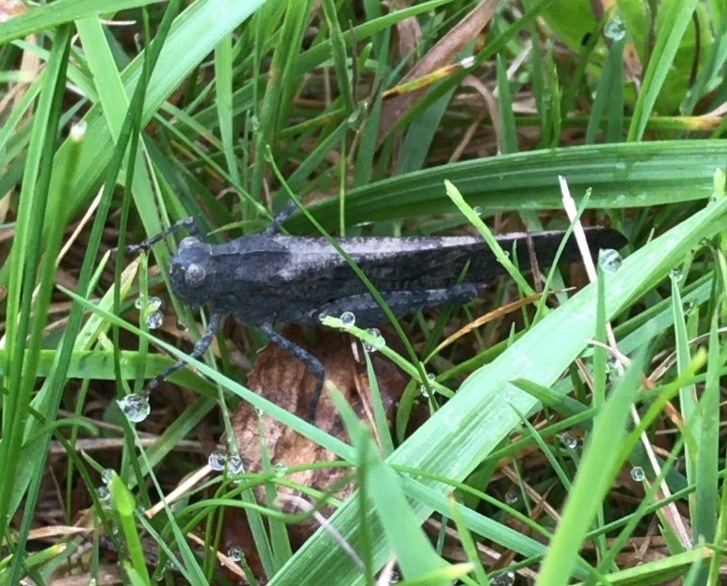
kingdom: Animalia
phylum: Arthropoda
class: Insecta
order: Orthoptera
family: Acrididae
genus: Dissosteira
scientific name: Dissosteira carolina
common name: Carolina grasshopper
